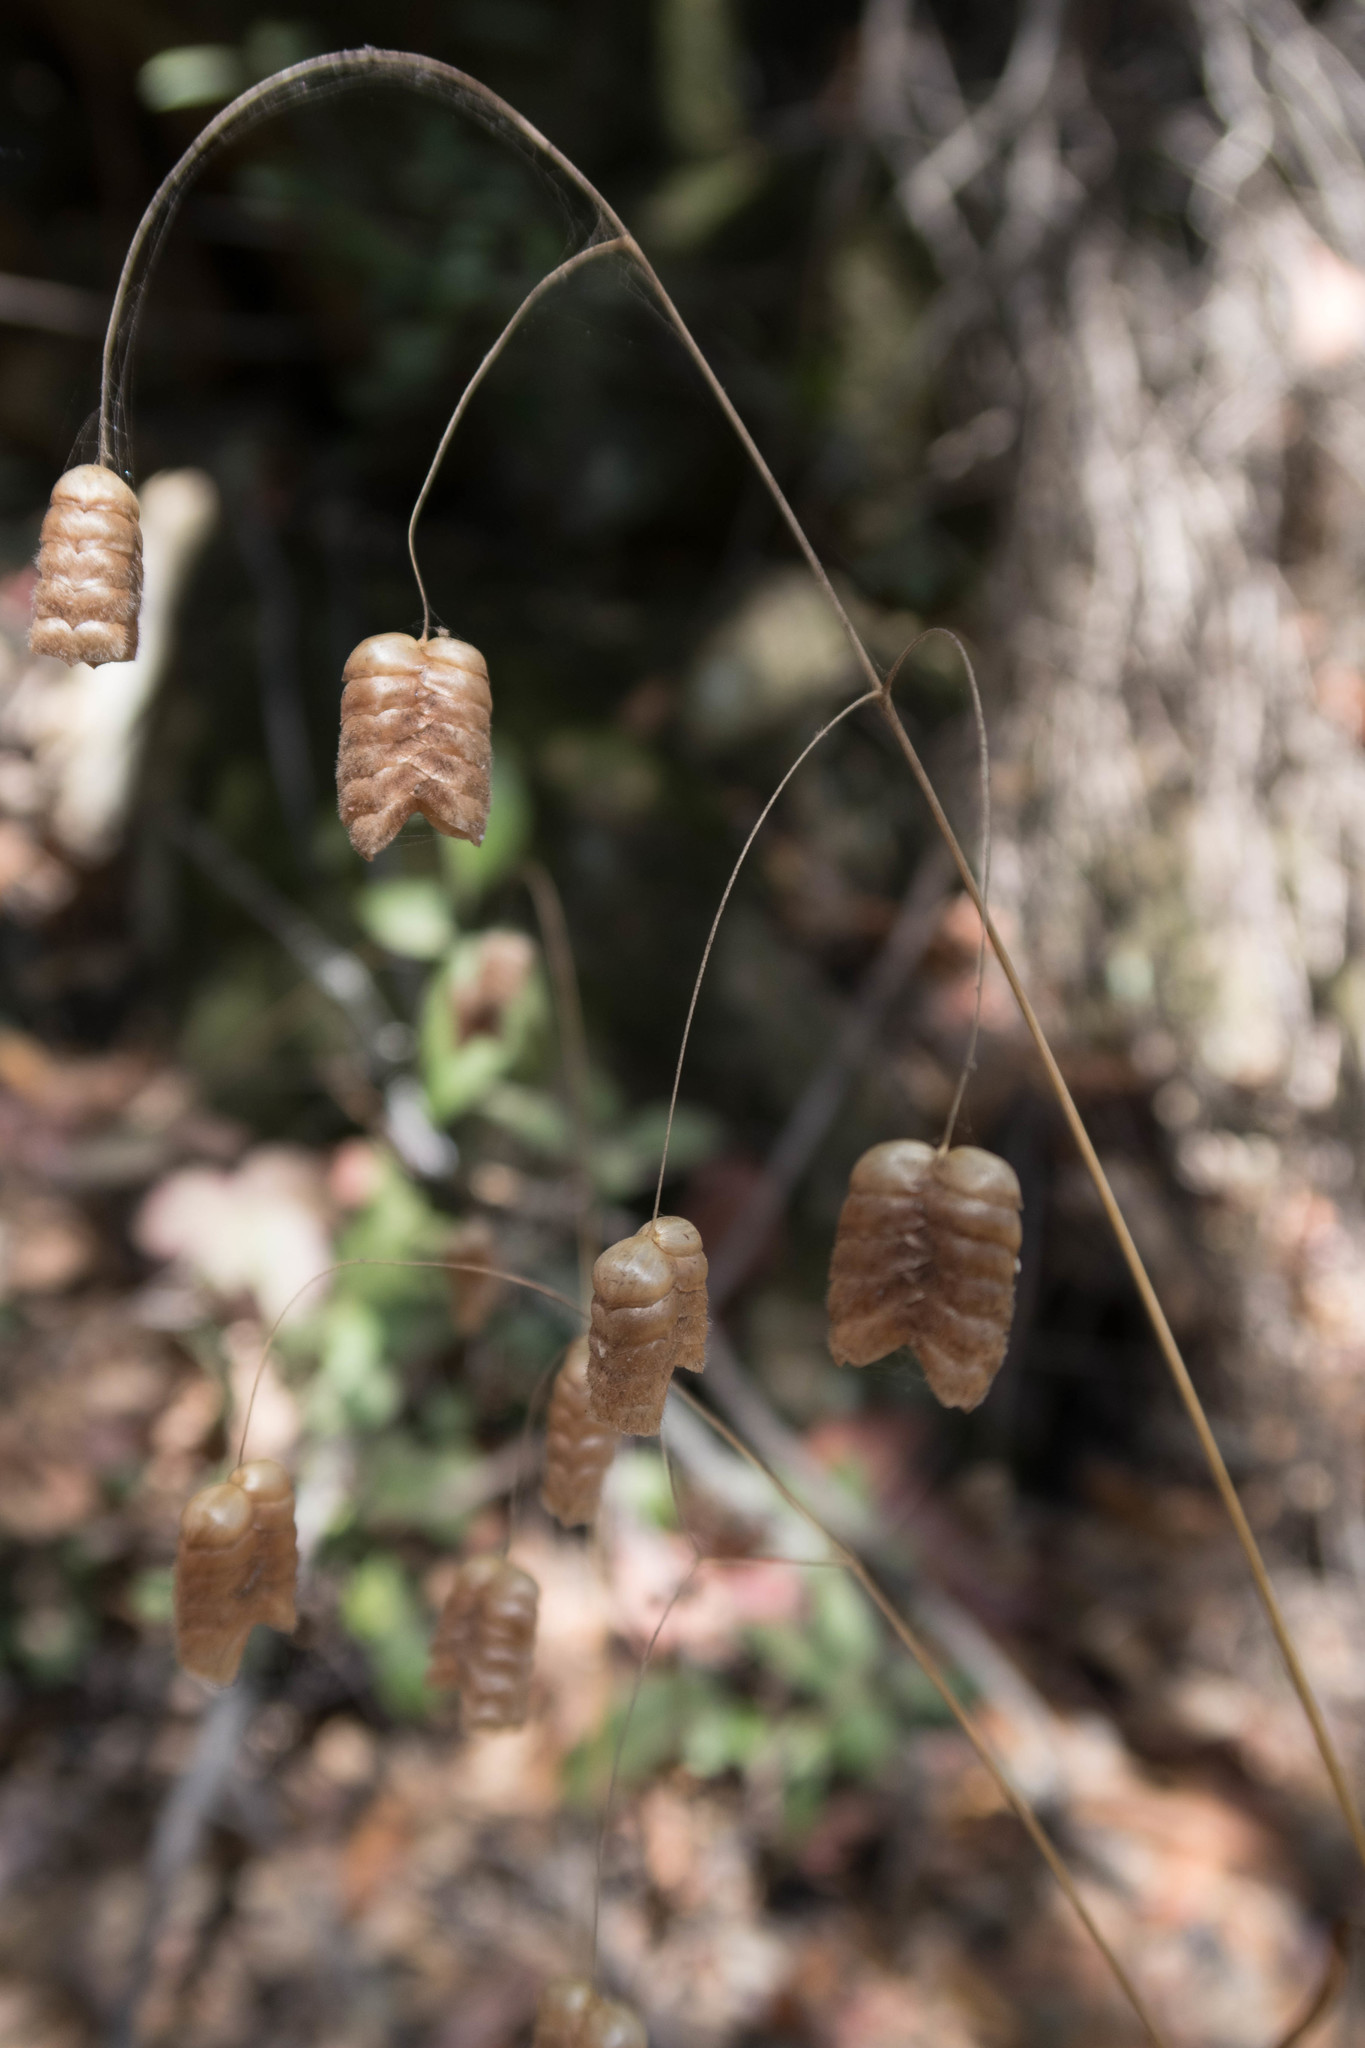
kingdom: Plantae
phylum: Tracheophyta
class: Liliopsida
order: Poales
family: Poaceae
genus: Briza
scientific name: Briza maxima
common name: Big quakinggrass
